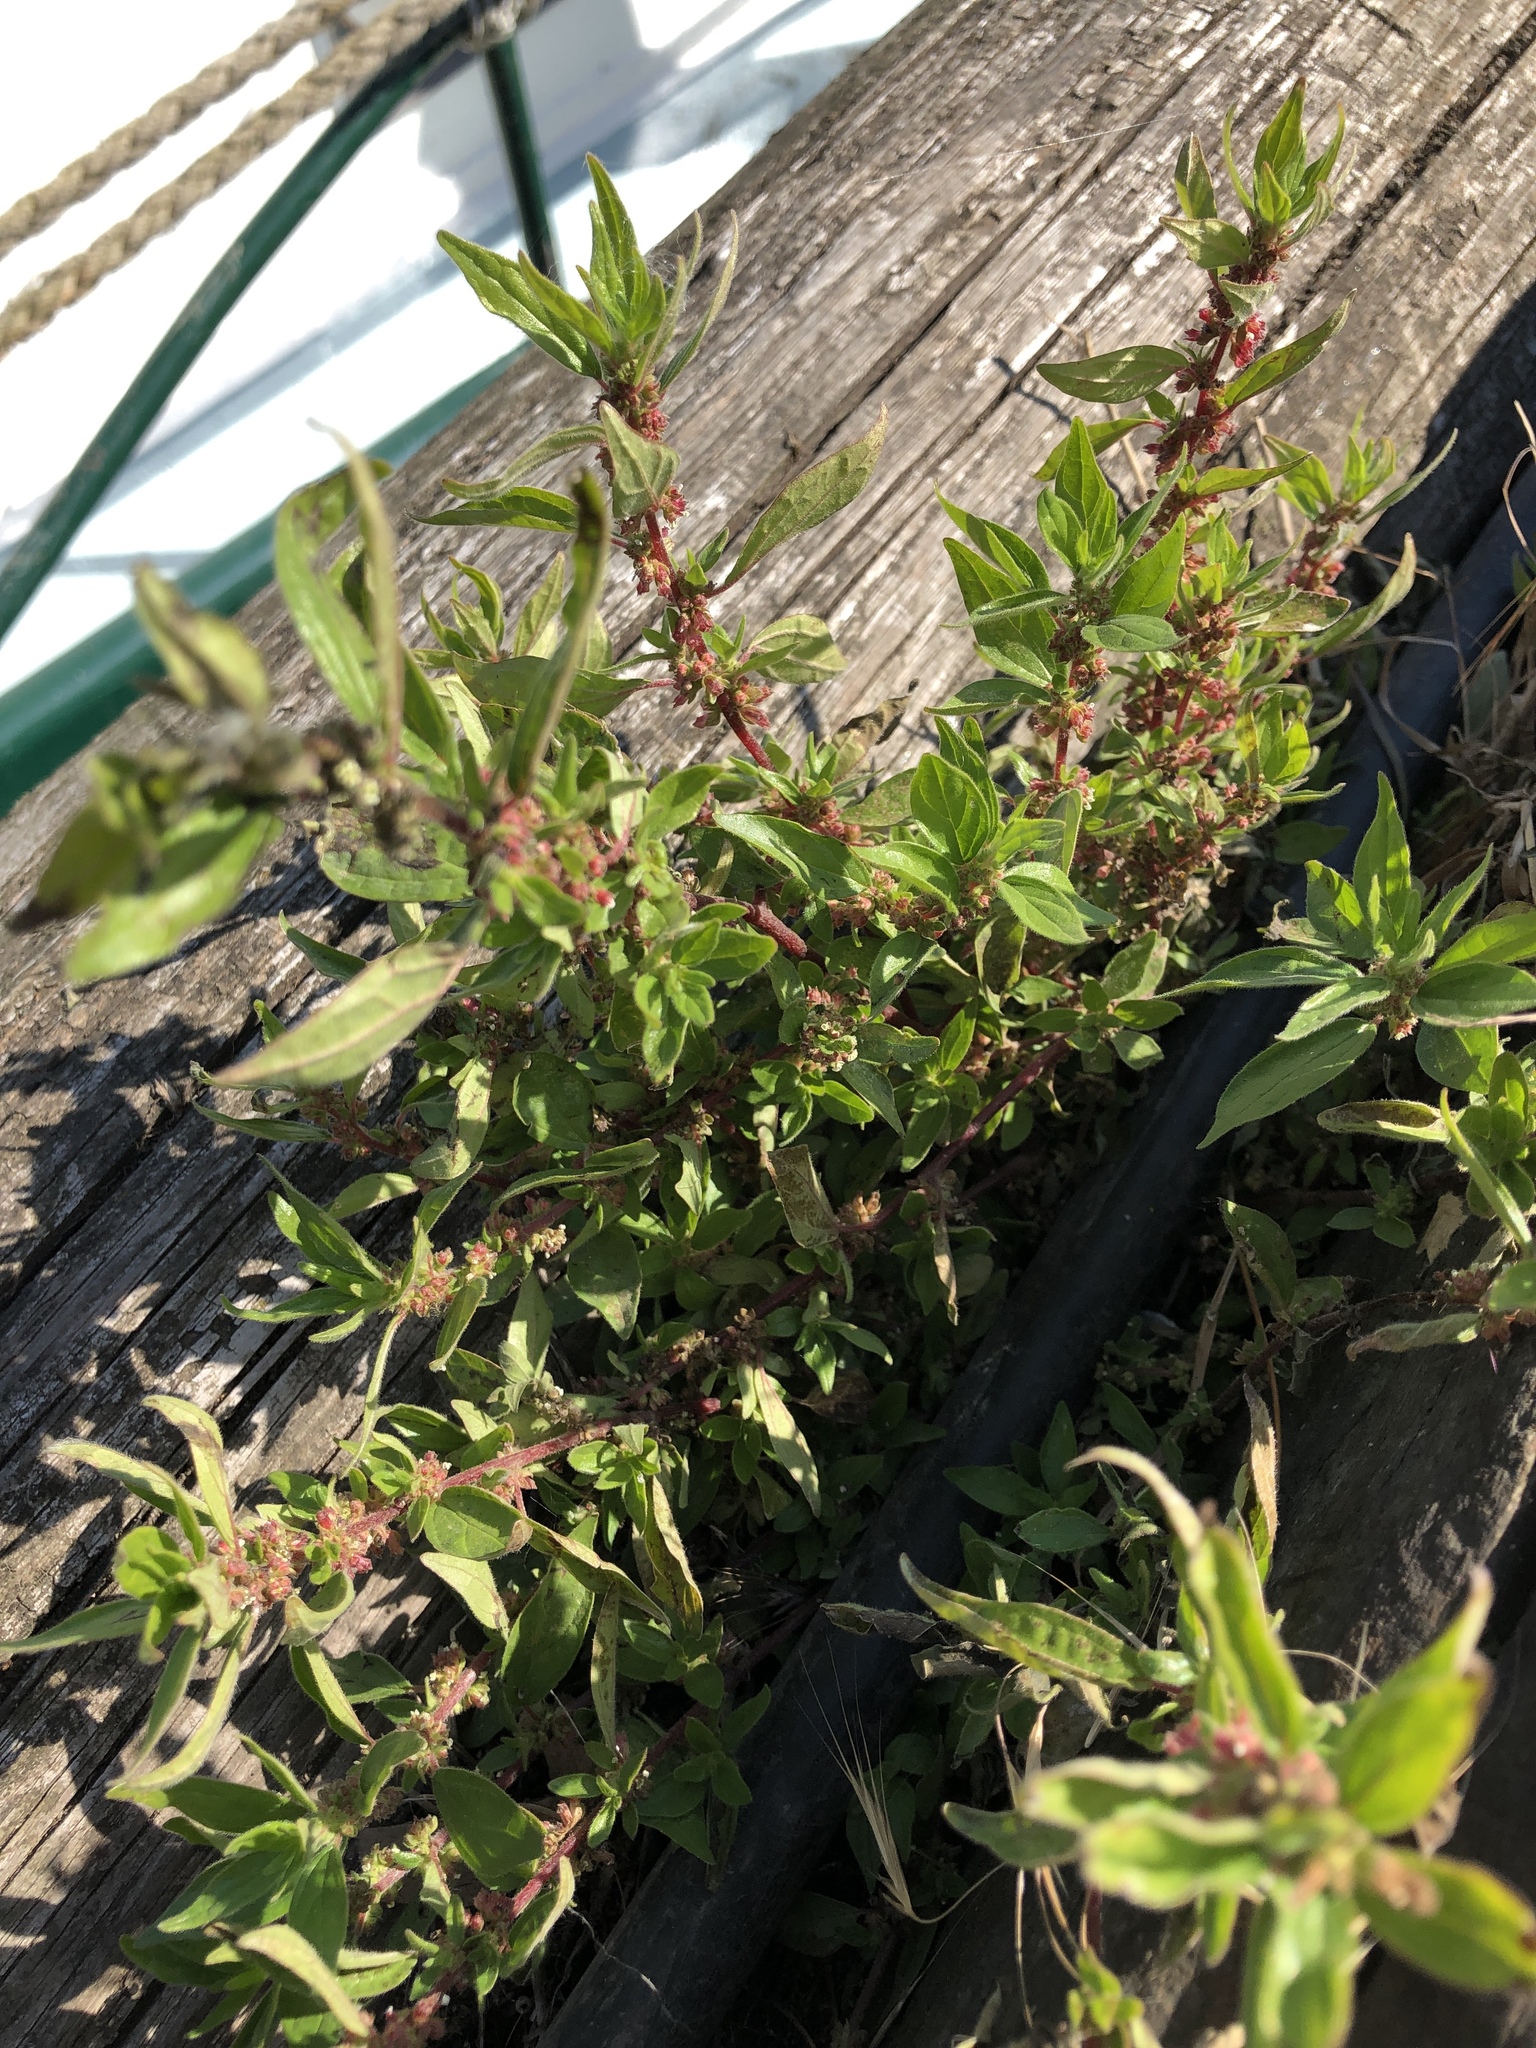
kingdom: Plantae
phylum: Tracheophyta
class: Magnoliopsida
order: Rosales
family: Urticaceae
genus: Parietaria
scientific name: Parietaria judaica
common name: Pellitory-of-the-wall
